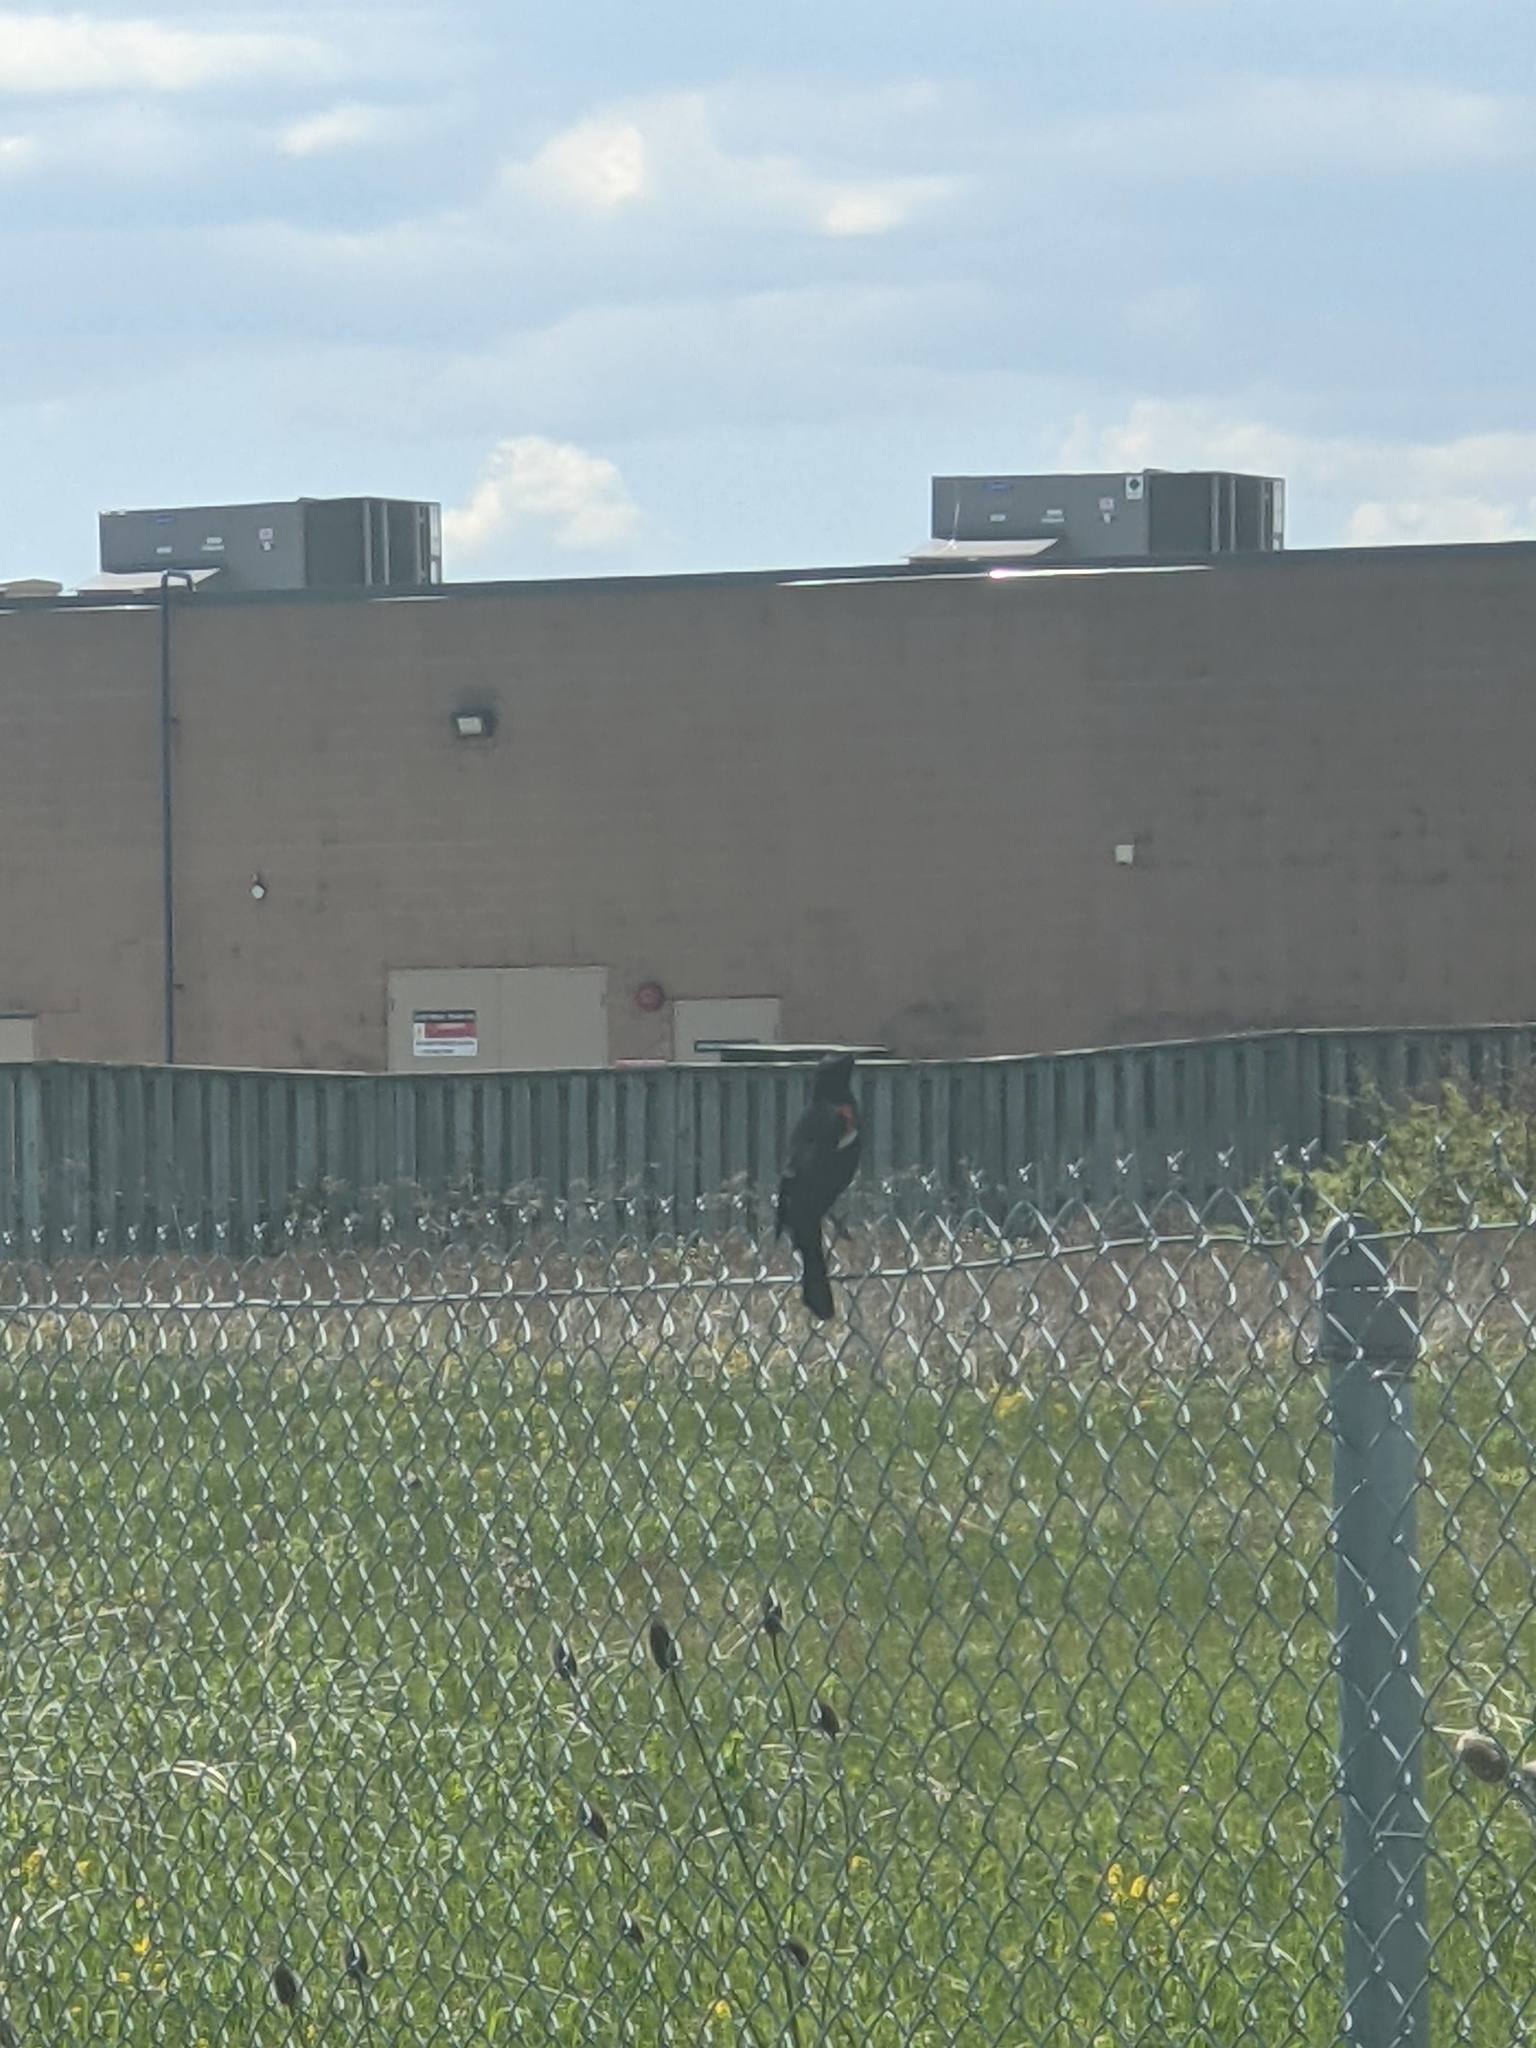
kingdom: Animalia
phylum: Chordata
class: Aves
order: Passeriformes
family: Icteridae
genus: Agelaius
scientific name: Agelaius phoeniceus
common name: Red-winged blackbird
